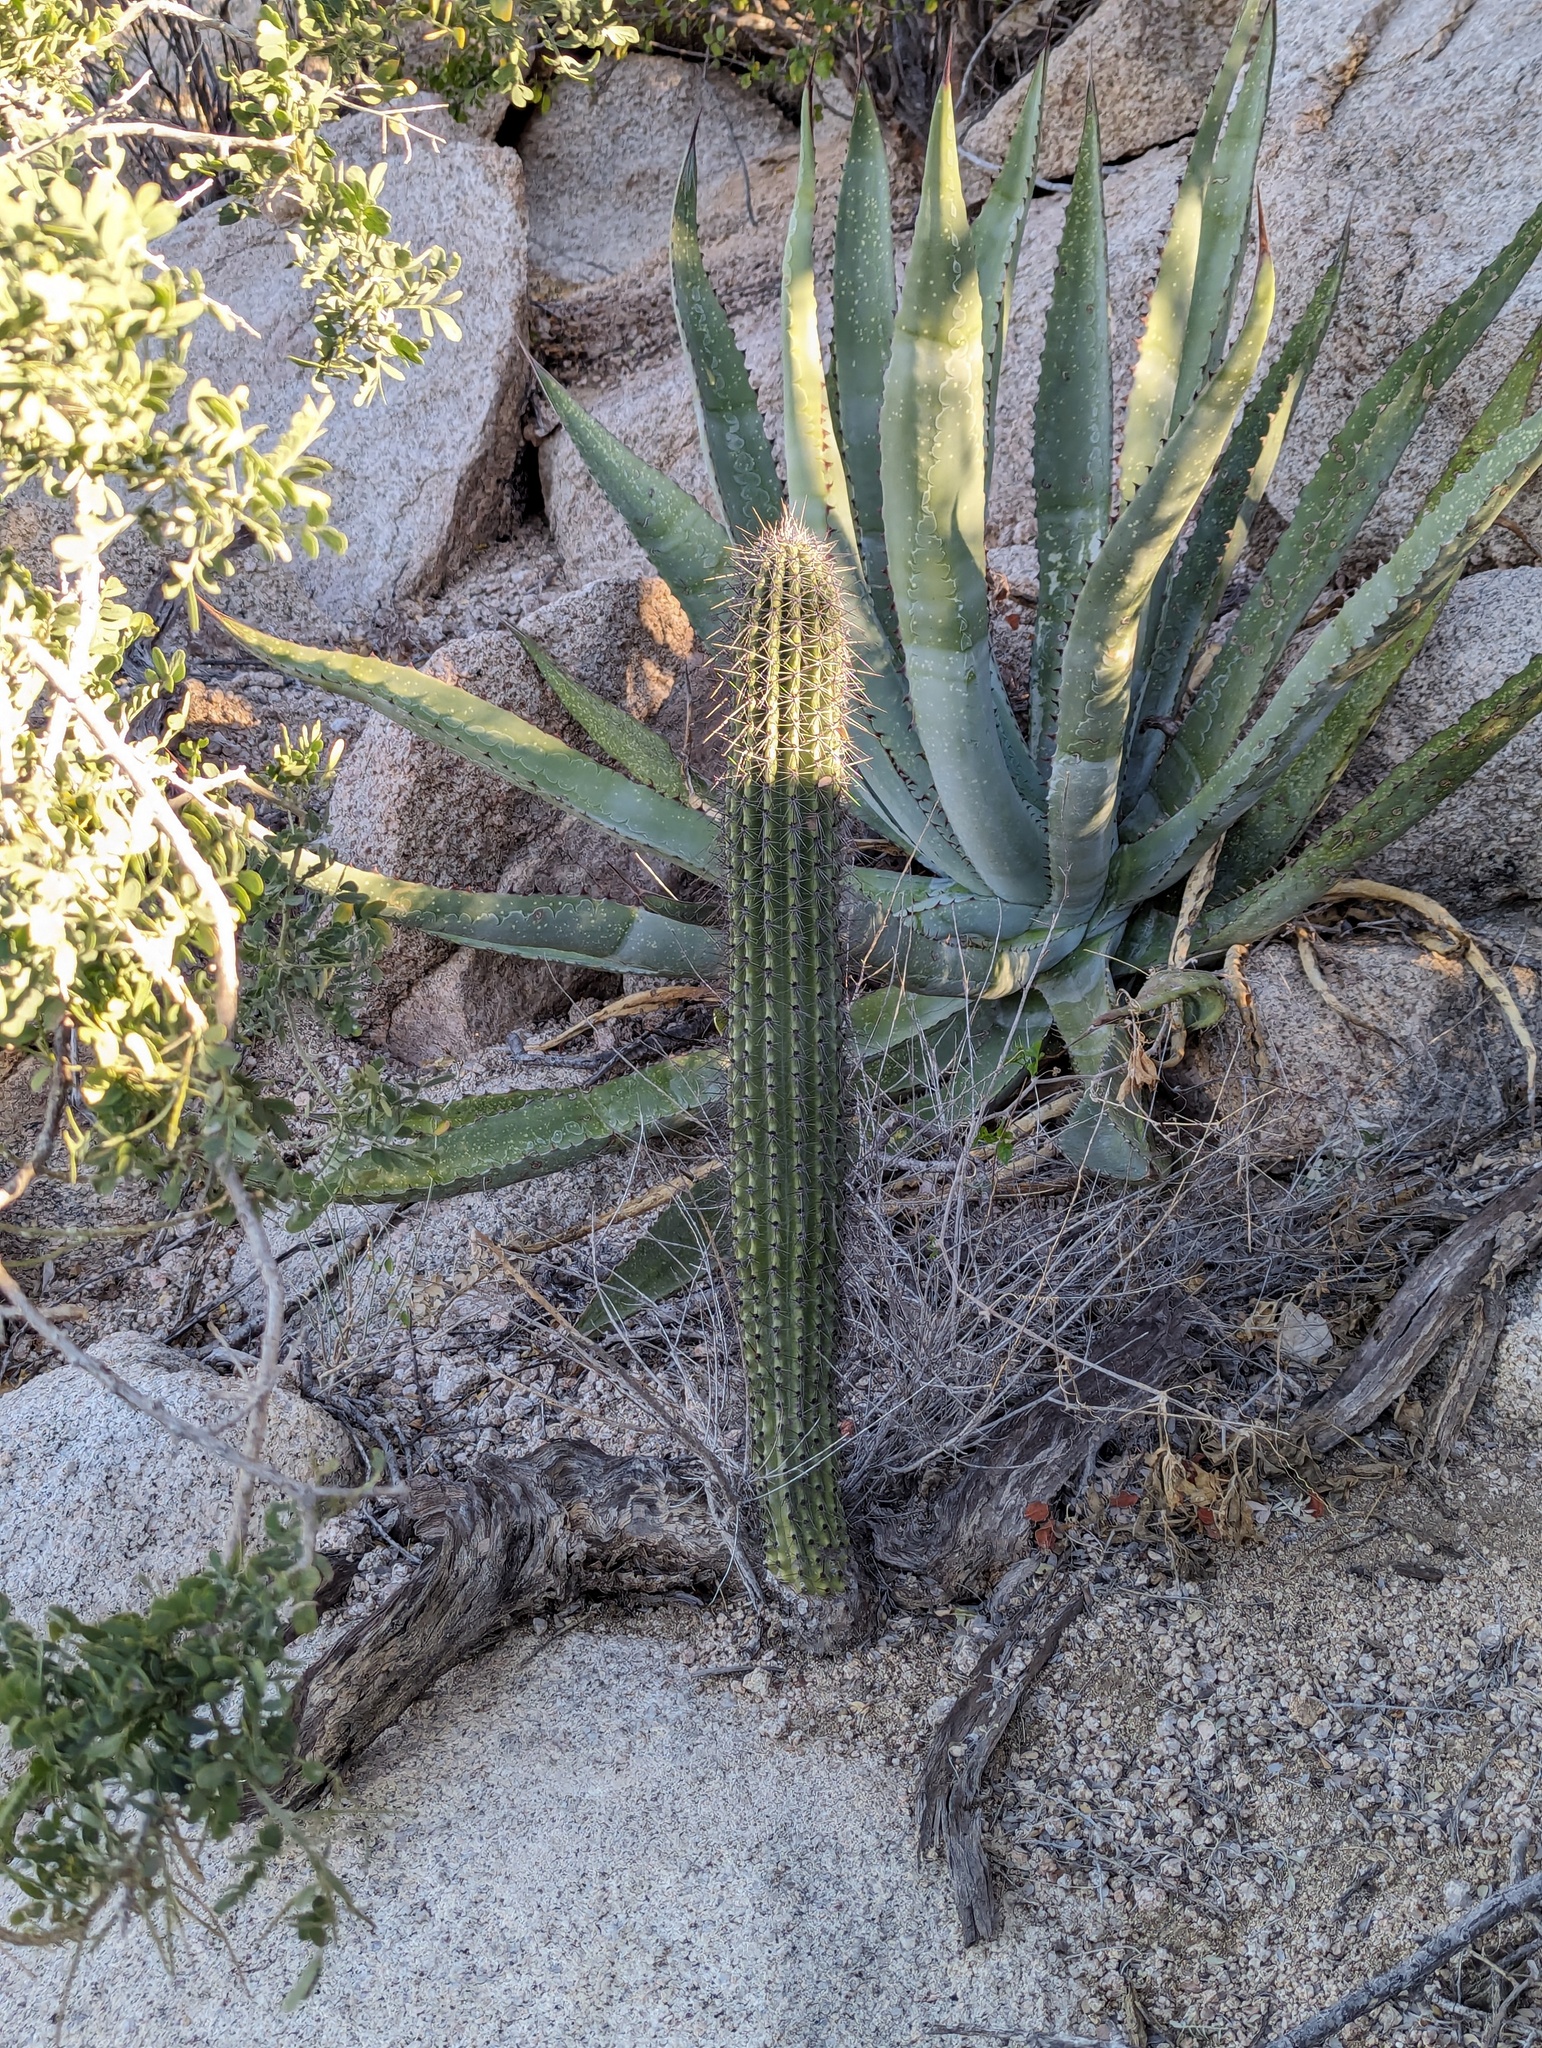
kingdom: Plantae
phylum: Tracheophyta
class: Magnoliopsida
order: Caryophyllales
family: Cactaceae
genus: Stenocereus
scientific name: Stenocereus thurberi
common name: Organ pipe cactus
